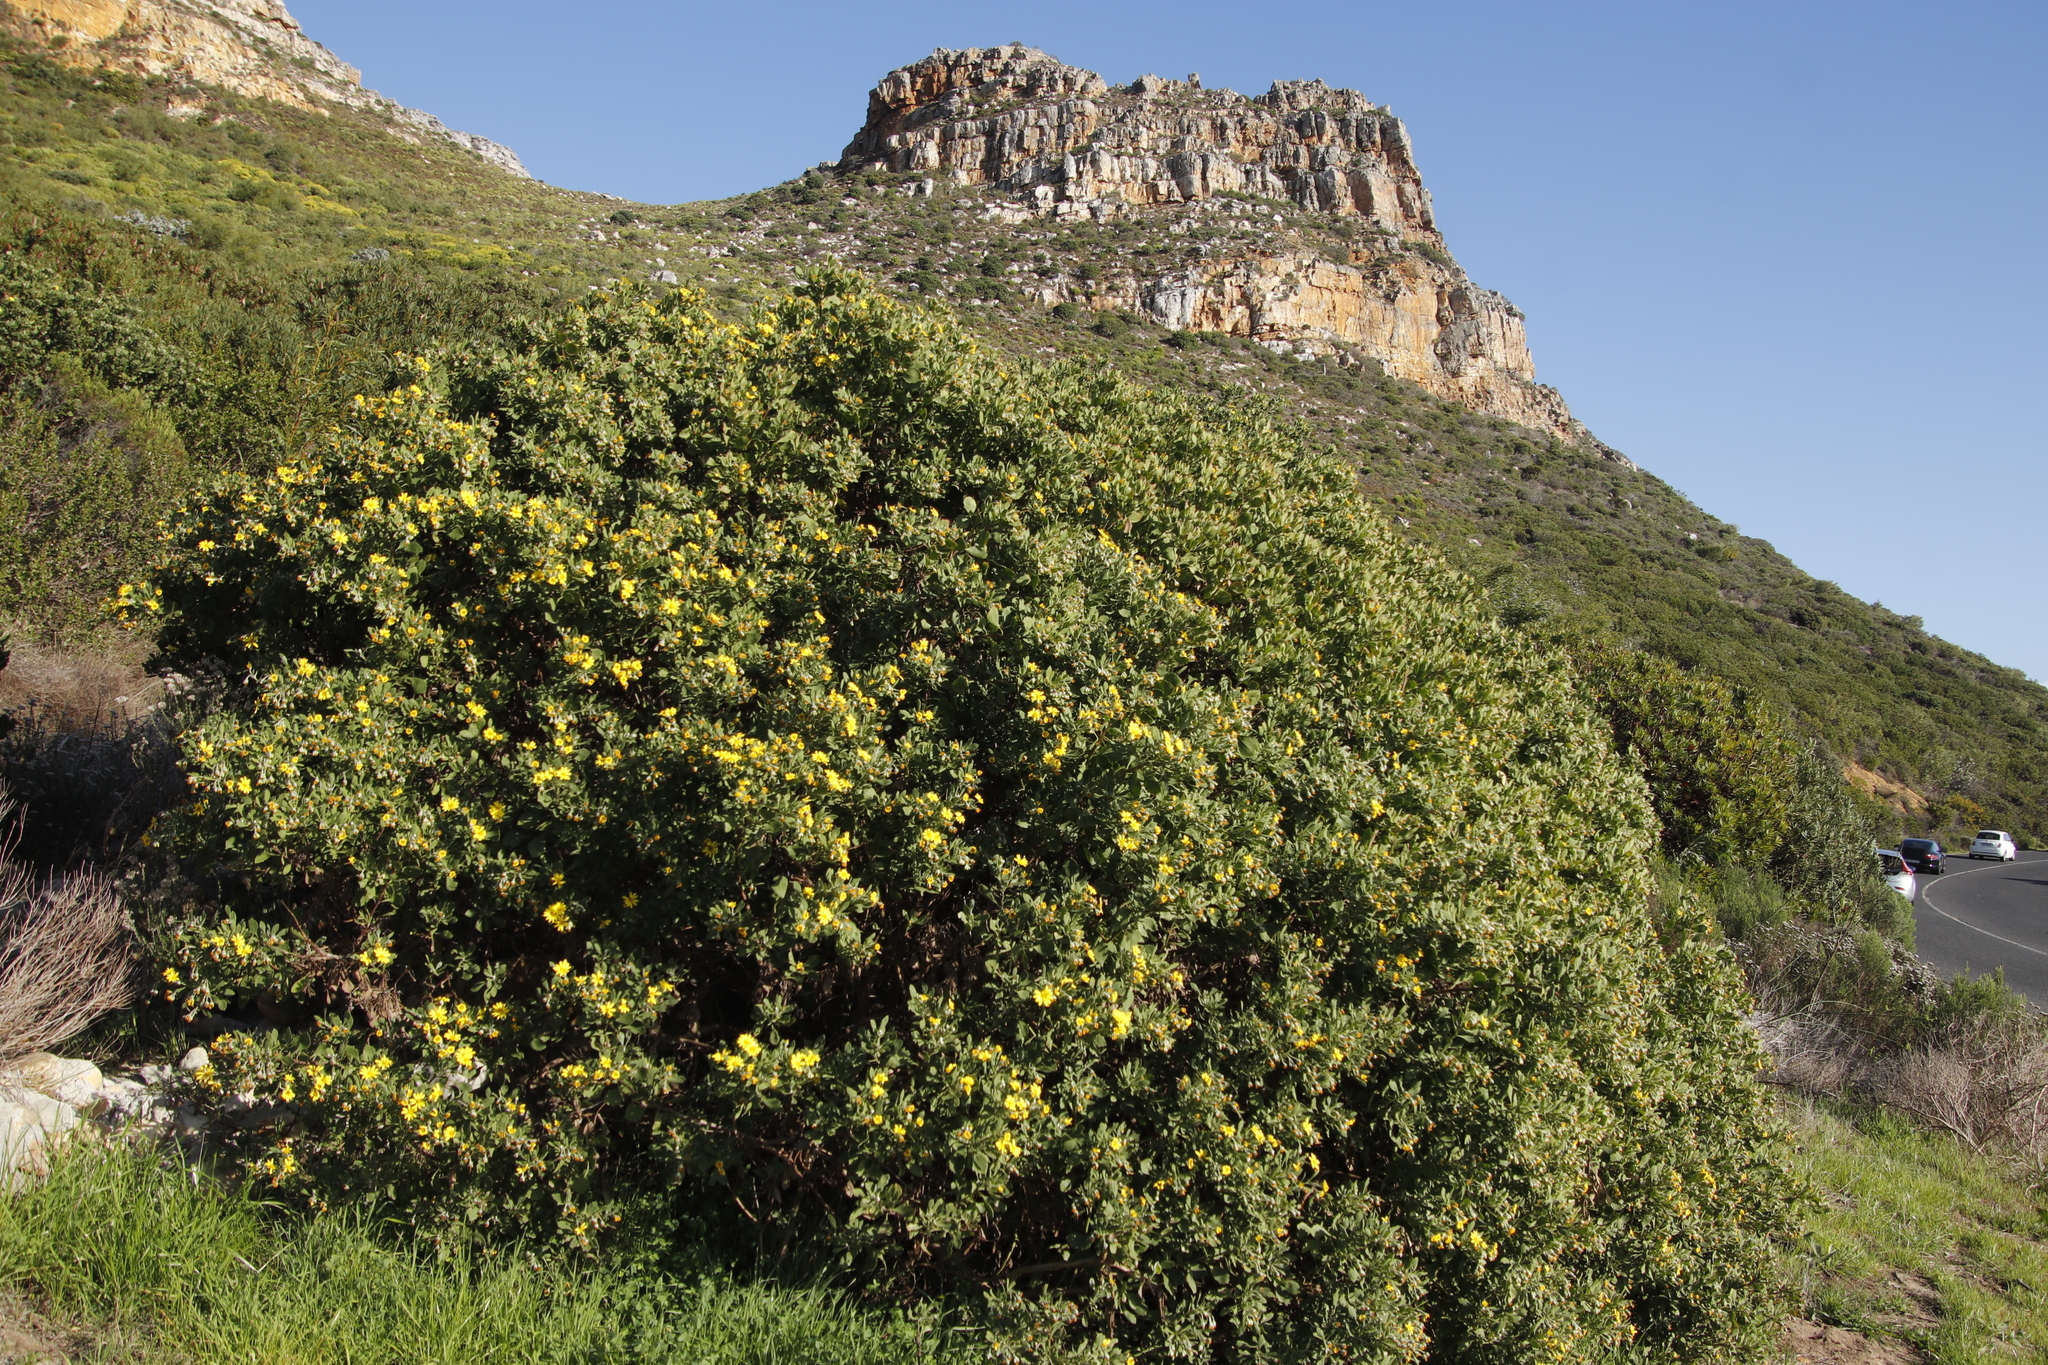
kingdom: Plantae
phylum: Tracheophyta
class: Magnoliopsida
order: Asterales
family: Asteraceae
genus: Osteospermum
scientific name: Osteospermum moniliferum
